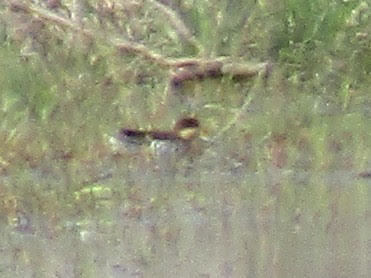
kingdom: Animalia
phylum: Chordata
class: Aves
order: Anseriformes
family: Anatidae
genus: Spatula
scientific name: Spatula versicolor
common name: Silver teal
